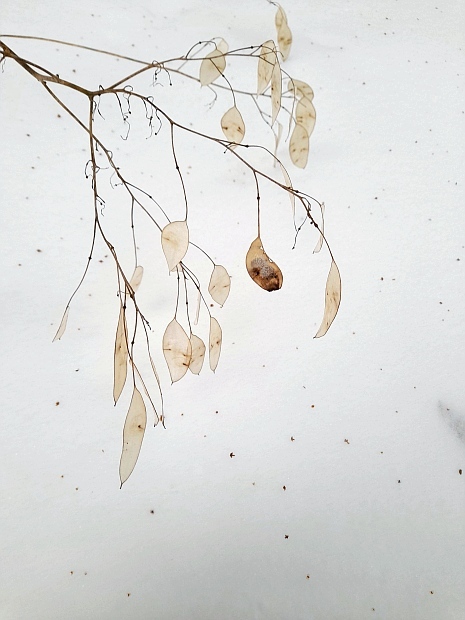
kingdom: Plantae
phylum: Tracheophyta
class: Magnoliopsida
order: Brassicales
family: Brassicaceae
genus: Lunaria
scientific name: Lunaria rediviva
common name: Perennial honesty
